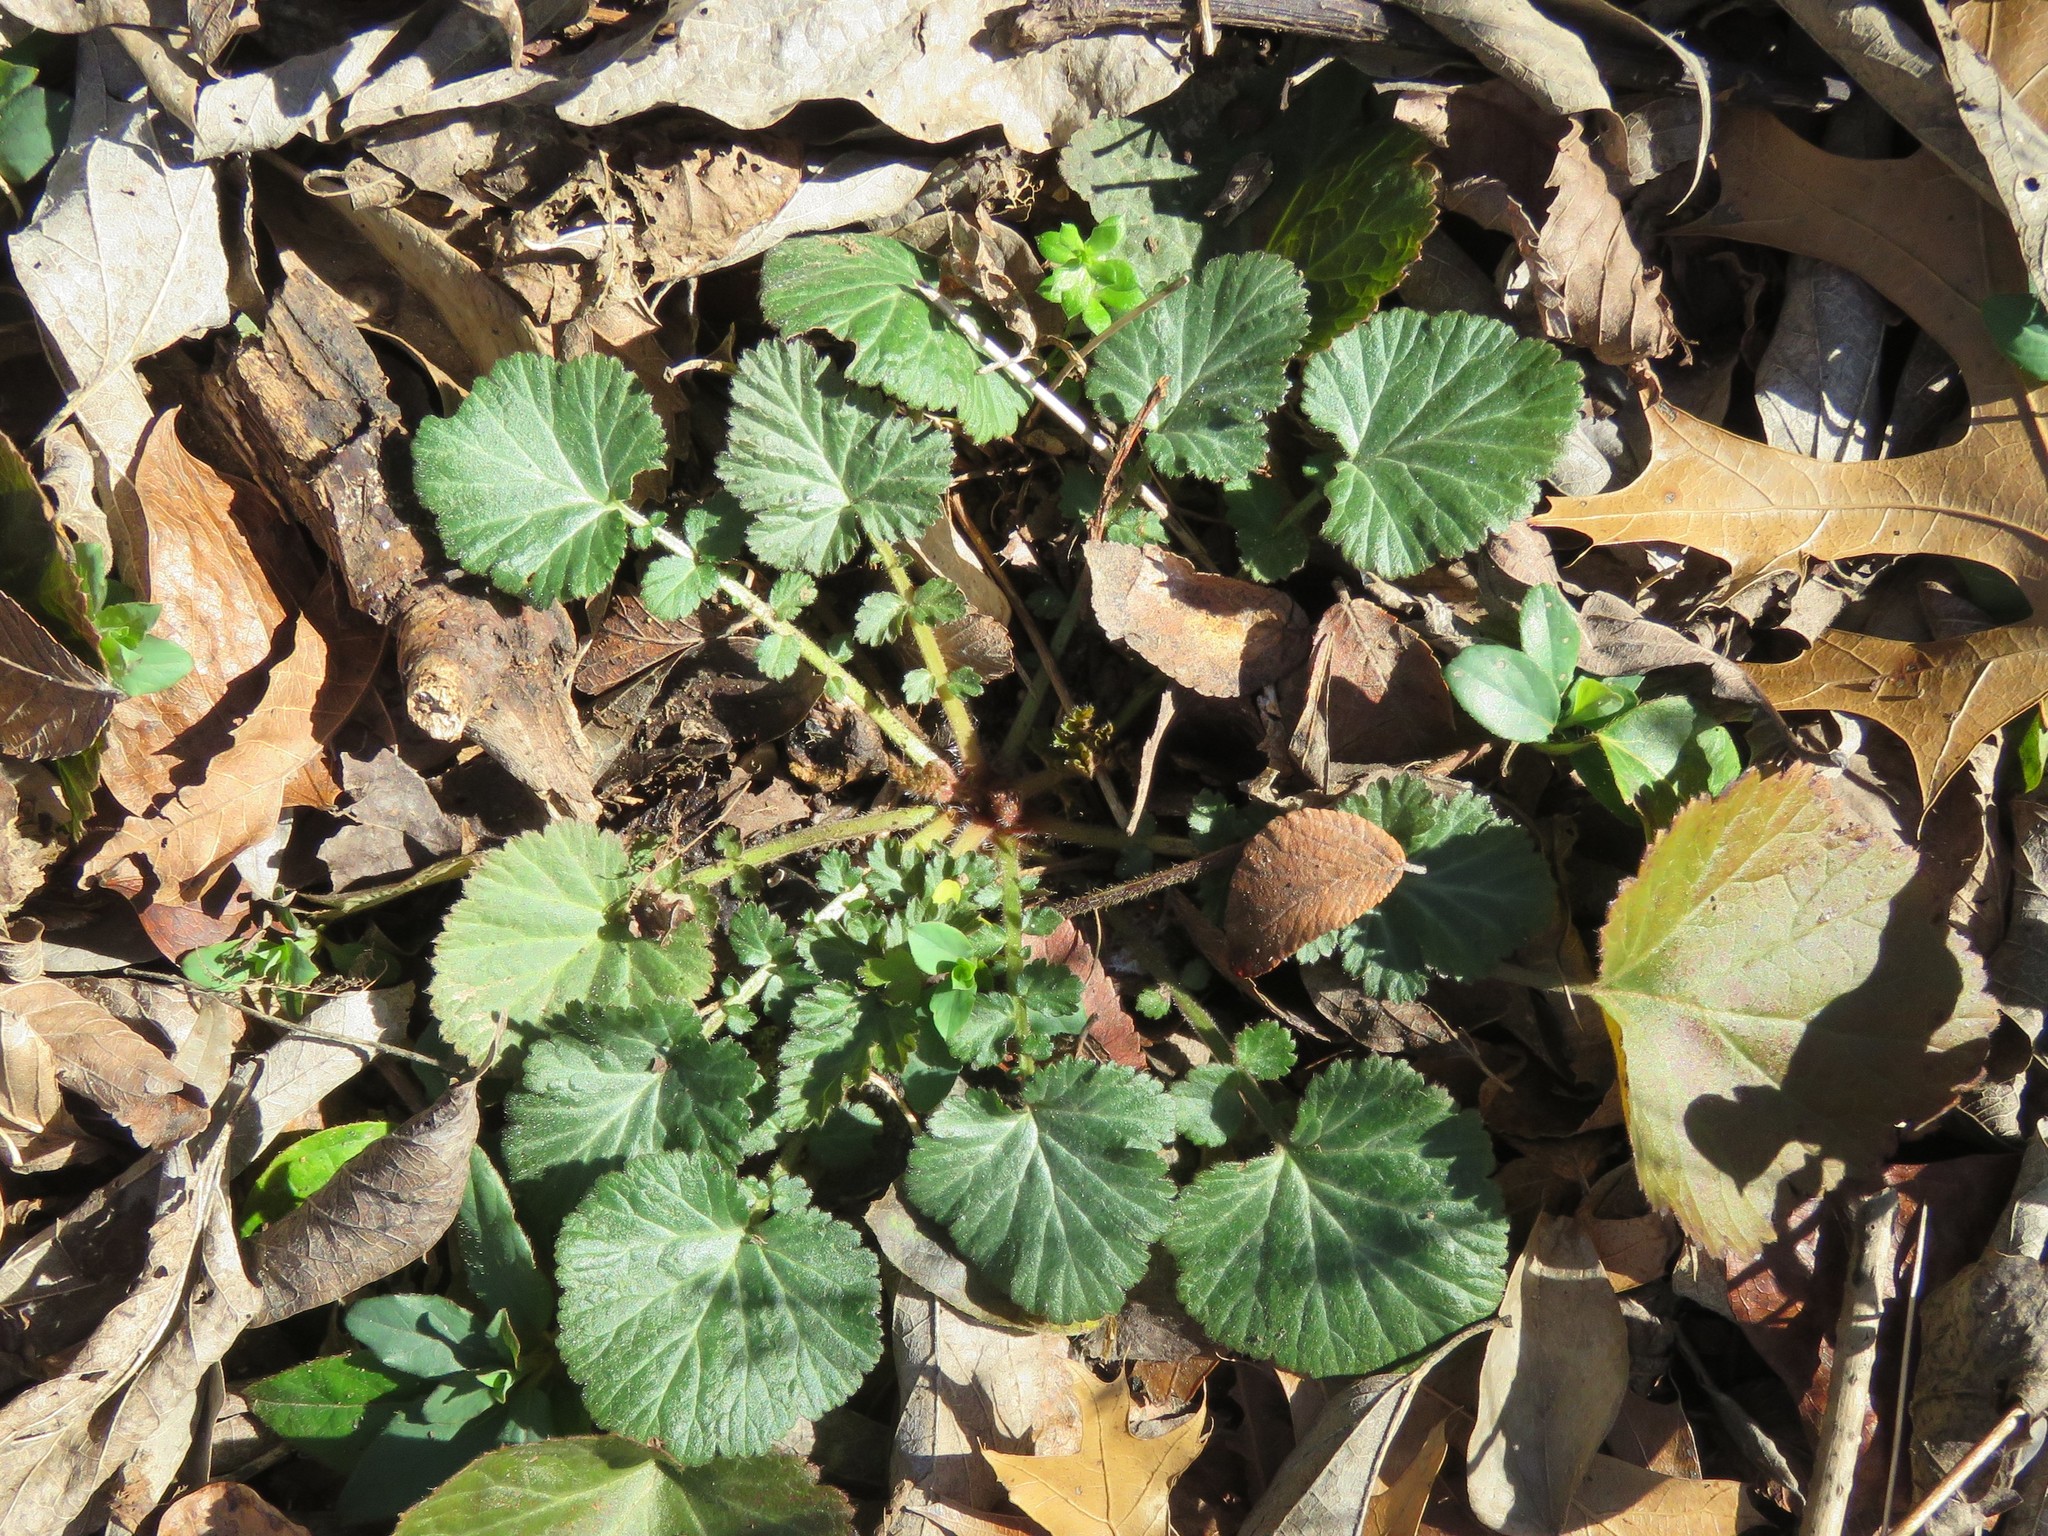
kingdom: Plantae
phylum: Tracheophyta
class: Magnoliopsida
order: Rosales
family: Rosaceae
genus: Geum
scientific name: Geum canadense
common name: White avens
